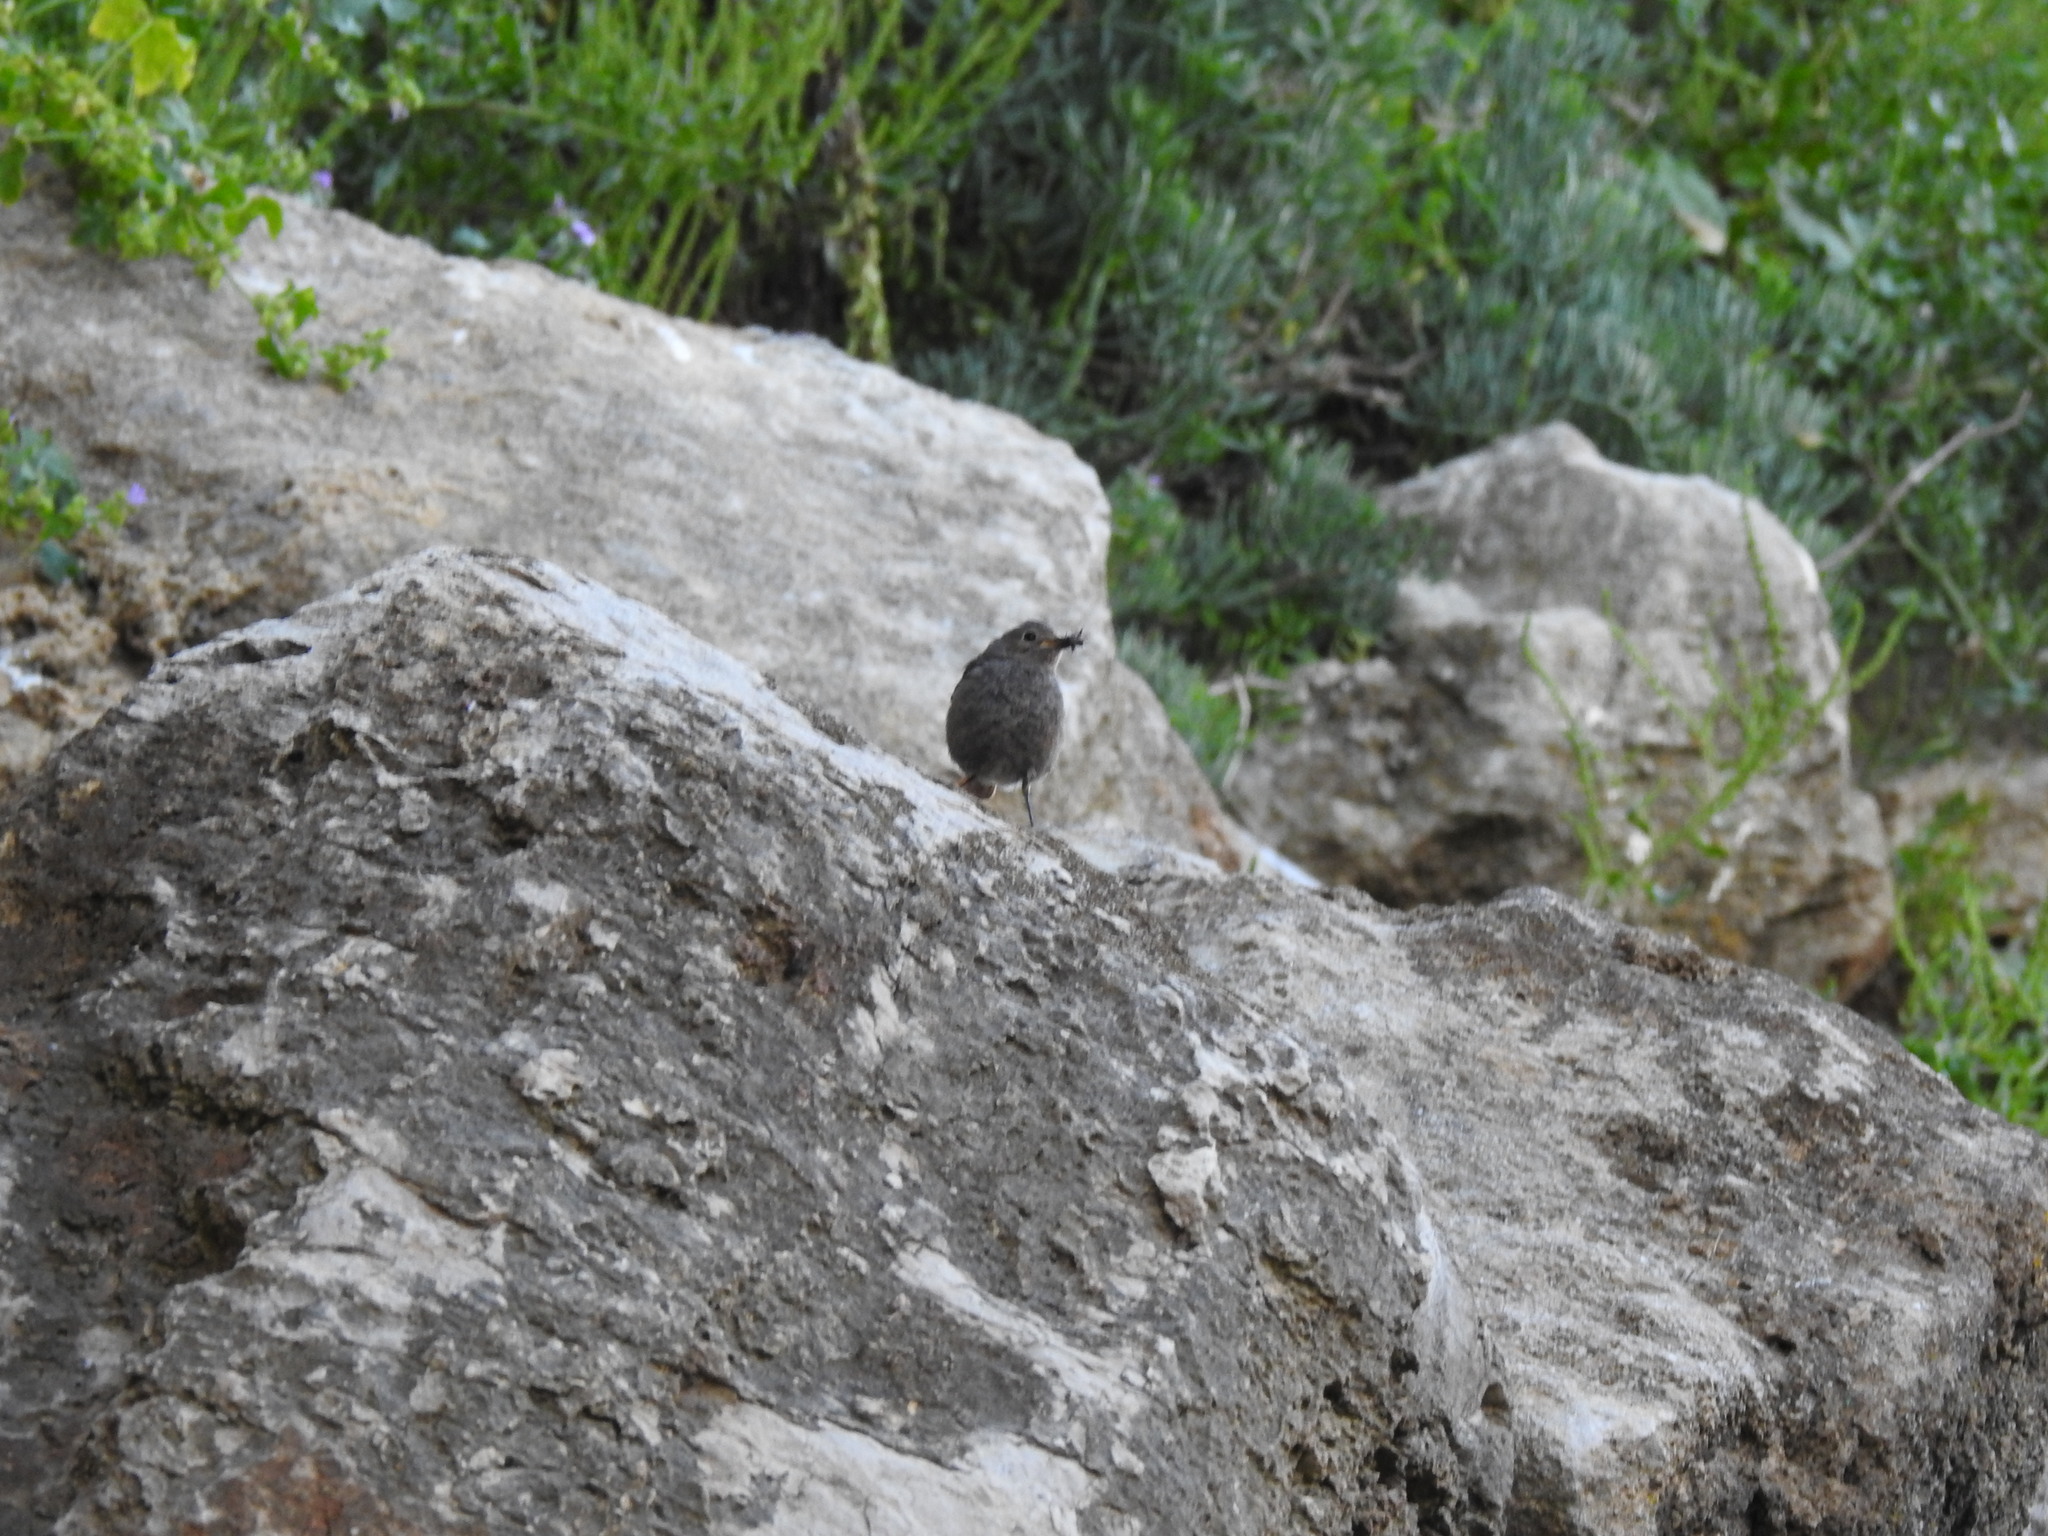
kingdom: Animalia
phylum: Chordata
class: Aves
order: Passeriformes
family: Muscicapidae
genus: Phoenicurus
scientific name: Phoenicurus ochruros
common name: Black redstart
